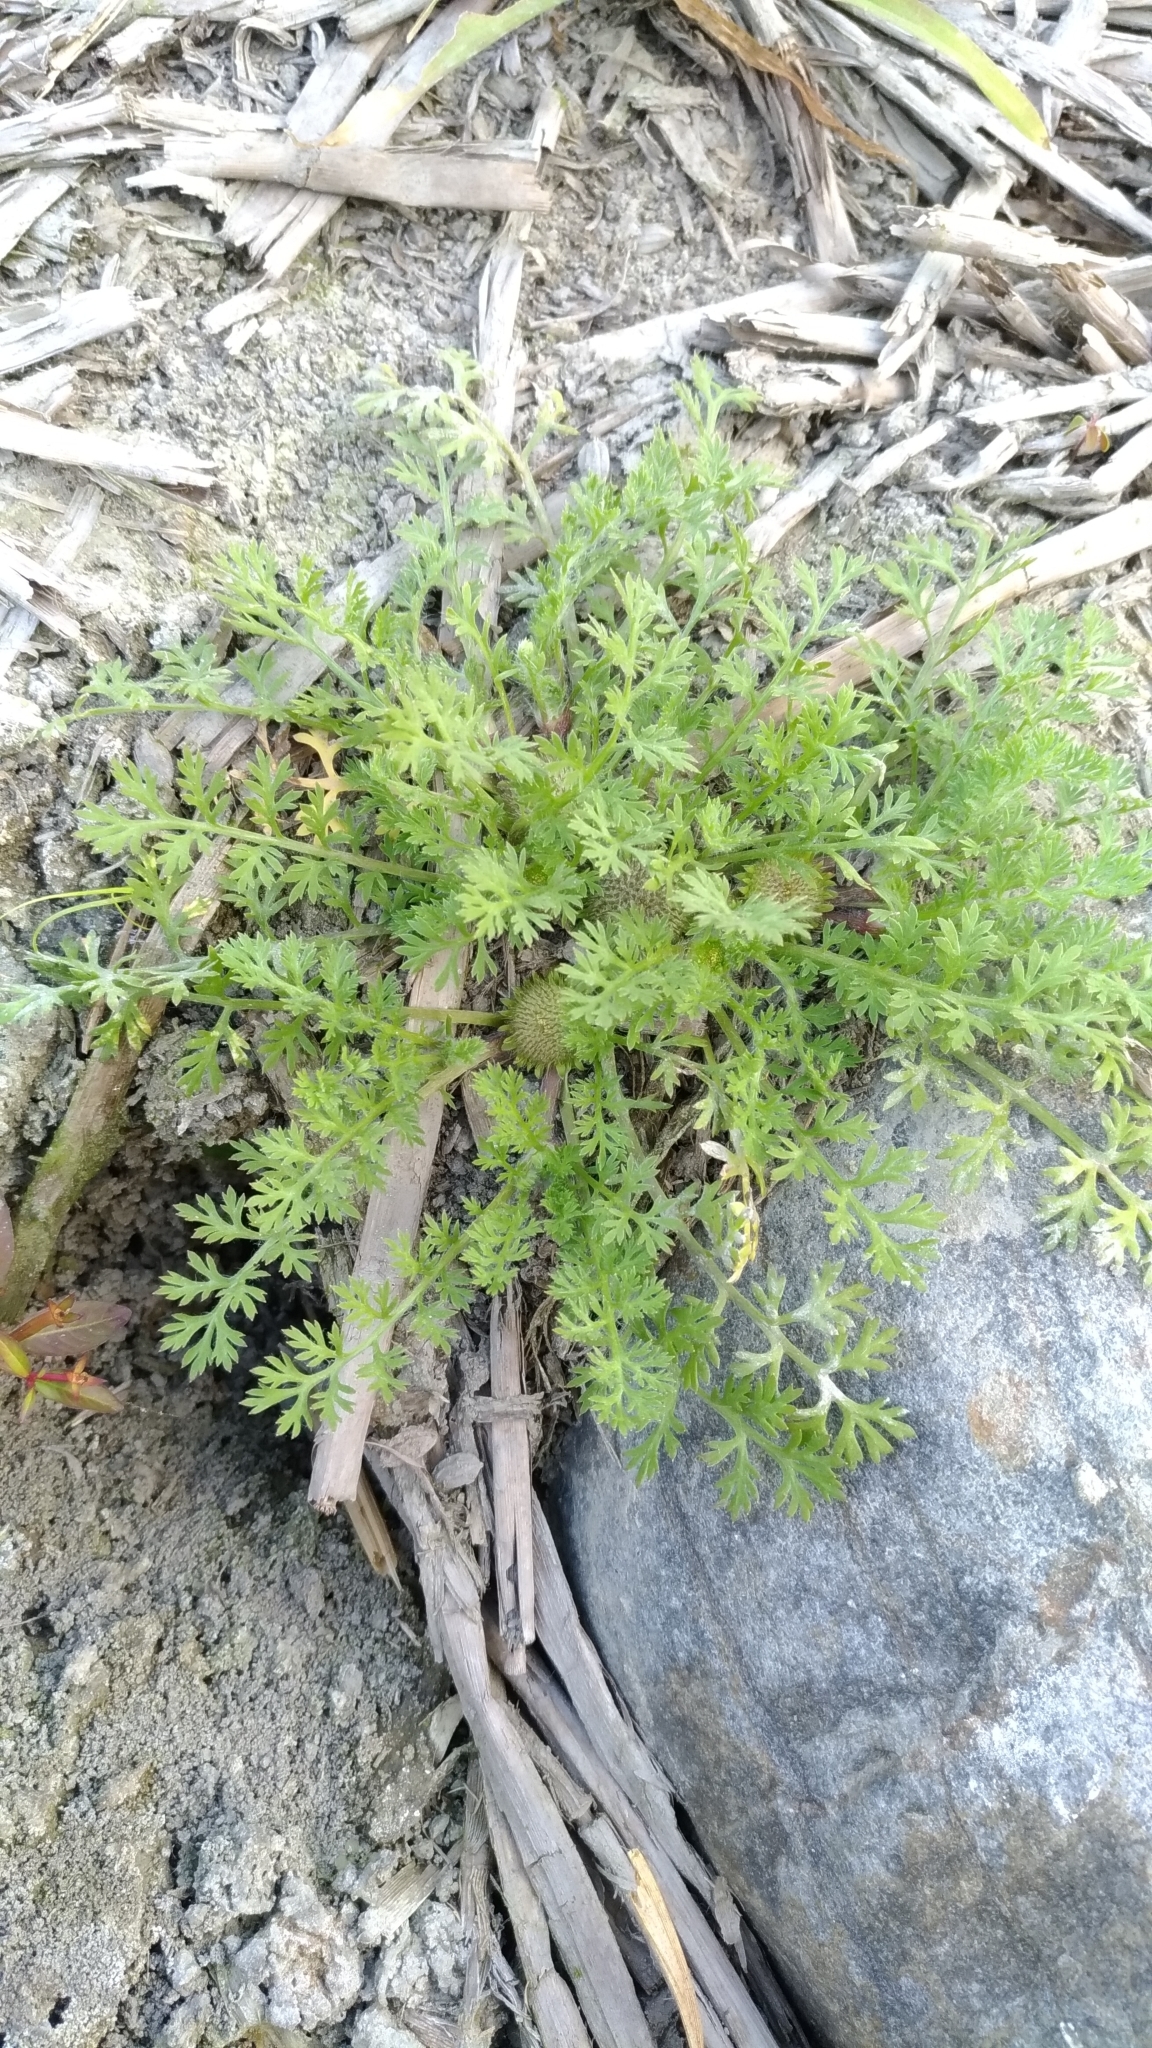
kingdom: Plantae
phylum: Tracheophyta
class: Magnoliopsida
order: Asterales
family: Asteraceae
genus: Soliva
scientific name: Soliva anthemifolia
